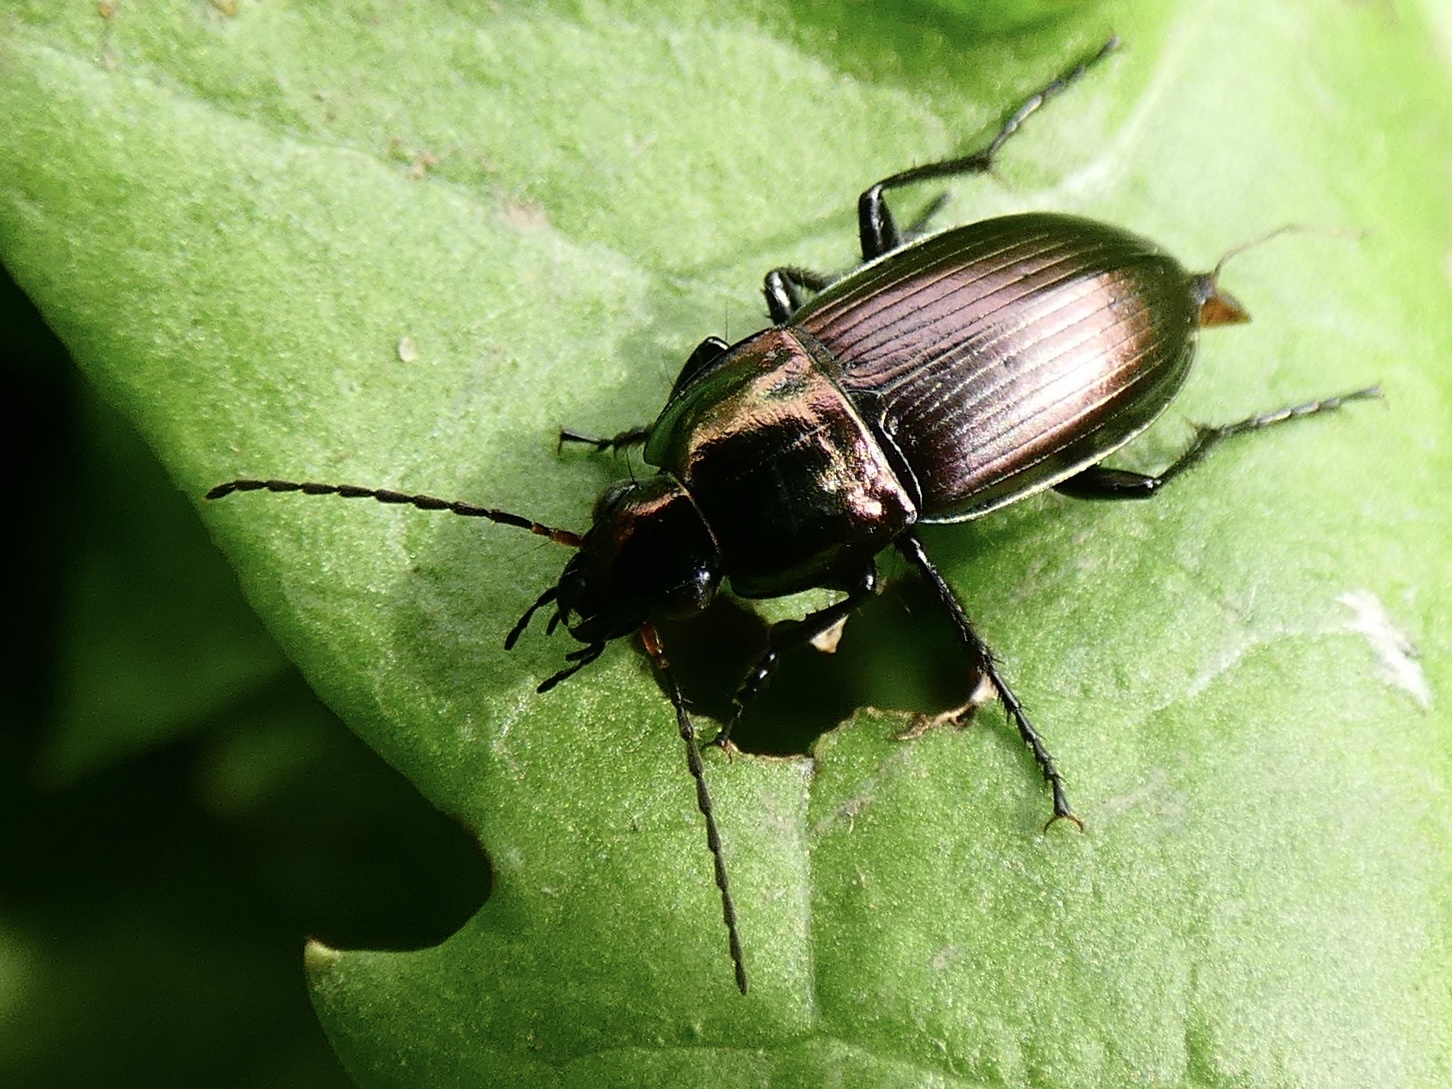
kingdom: Animalia
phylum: Arthropoda
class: Insecta
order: Coleoptera
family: Carabidae
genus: Poecilus
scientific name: Poecilus versicolor
